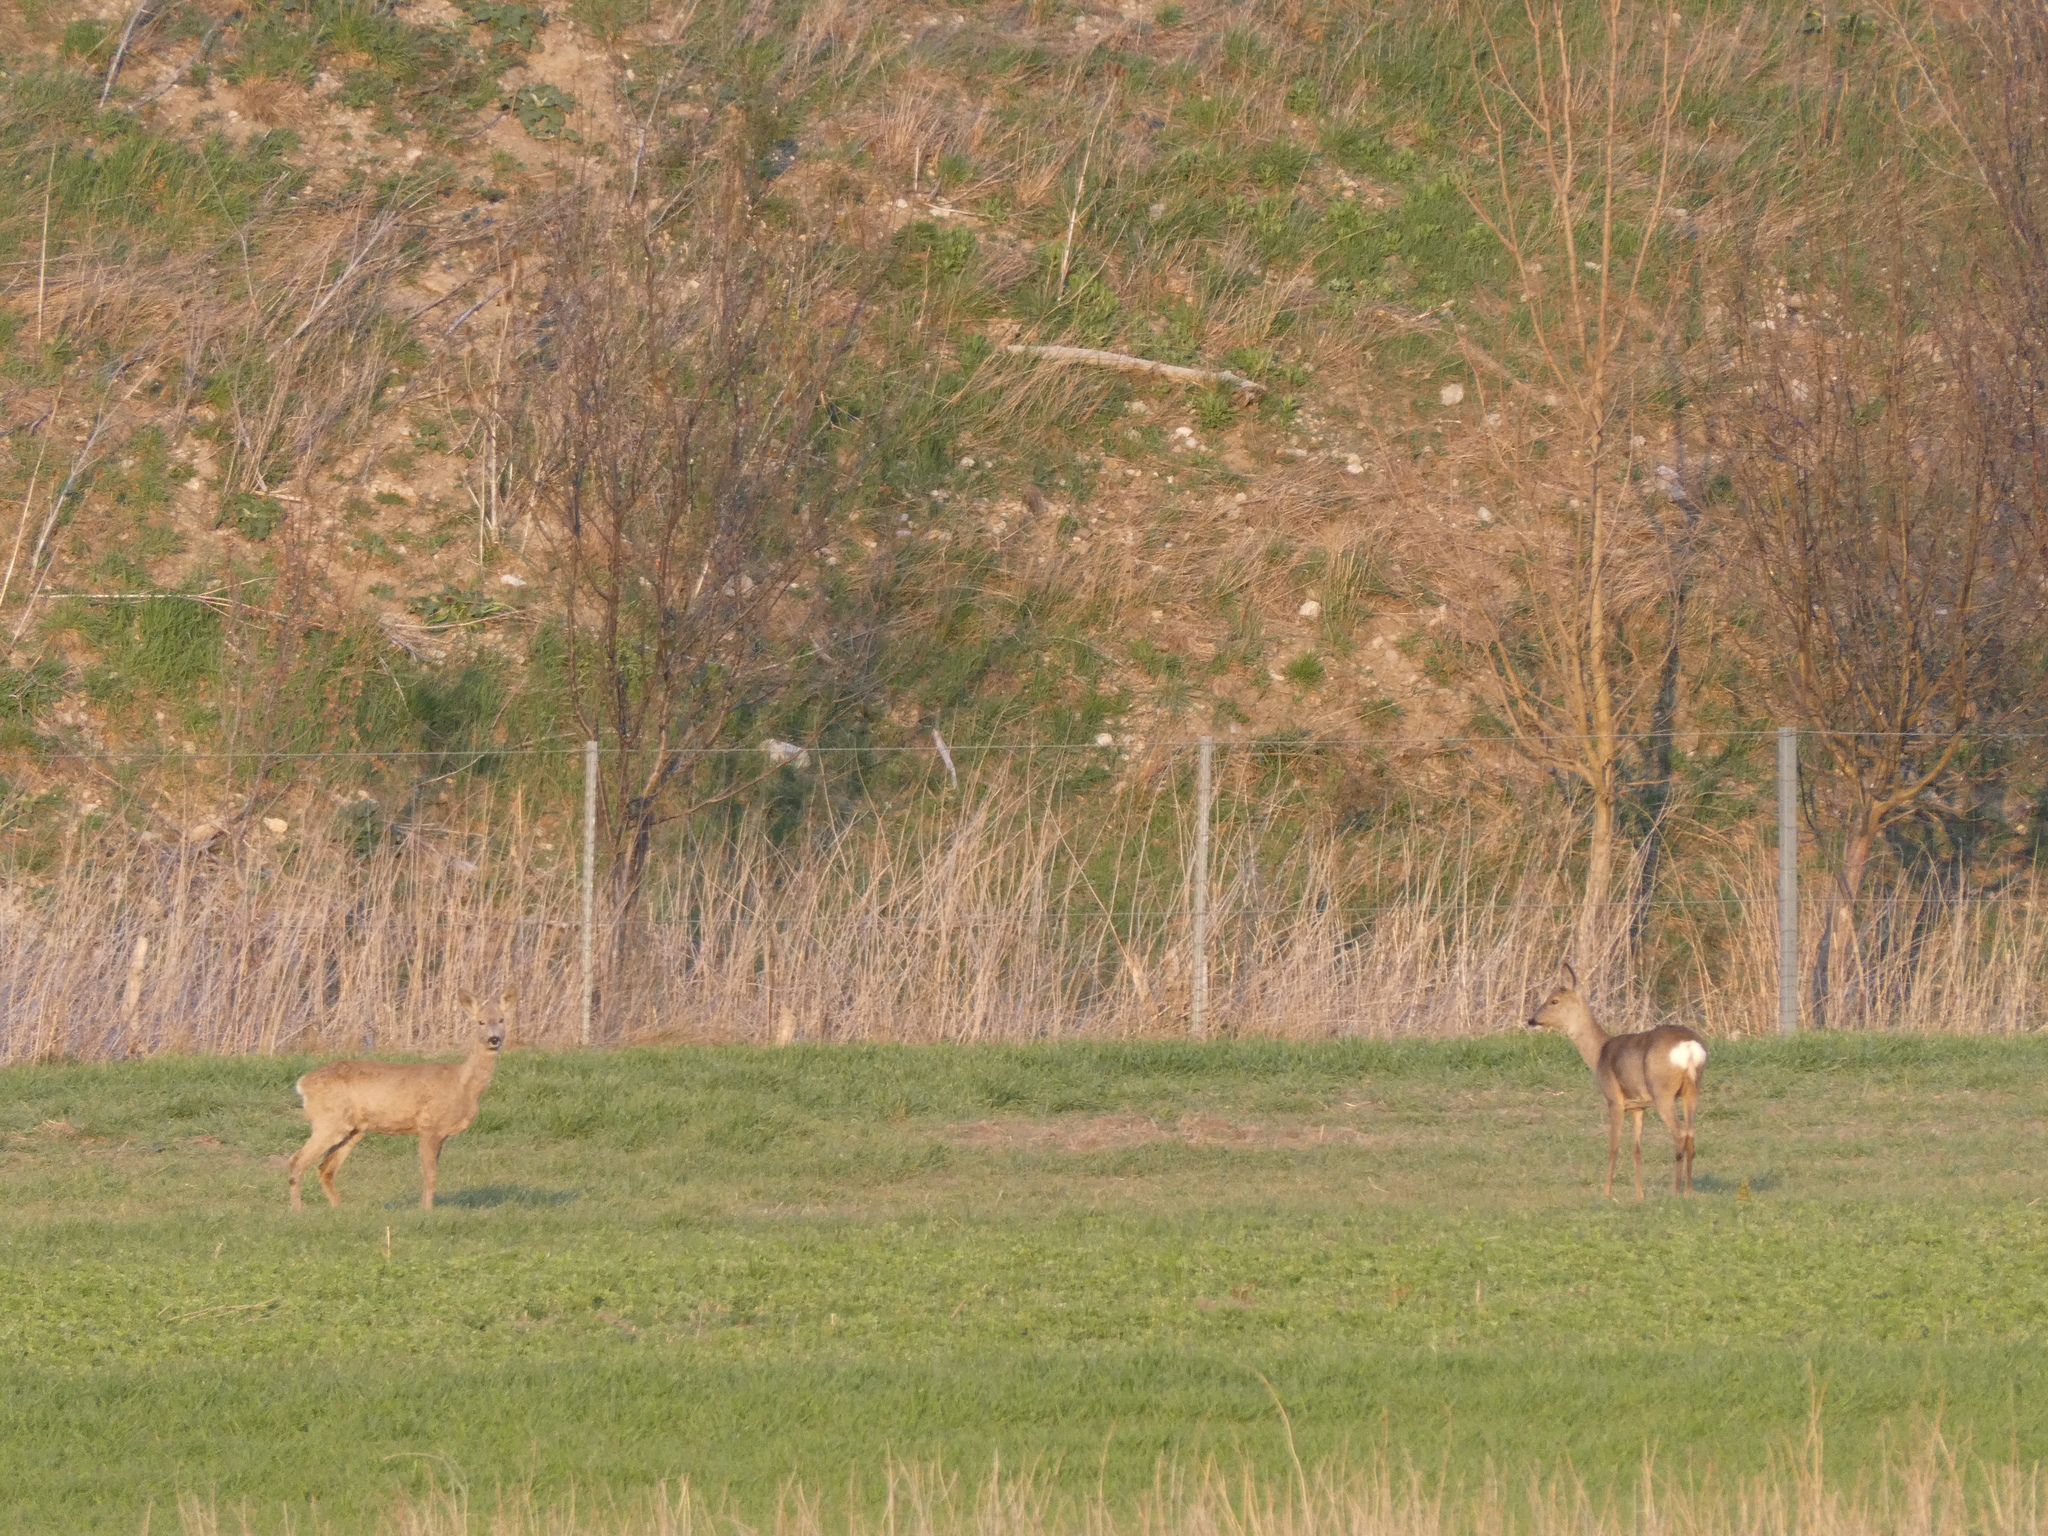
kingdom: Animalia
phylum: Chordata
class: Mammalia
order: Artiodactyla
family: Cervidae
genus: Capreolus
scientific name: Capreolus capreolus
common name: Western roe deer
